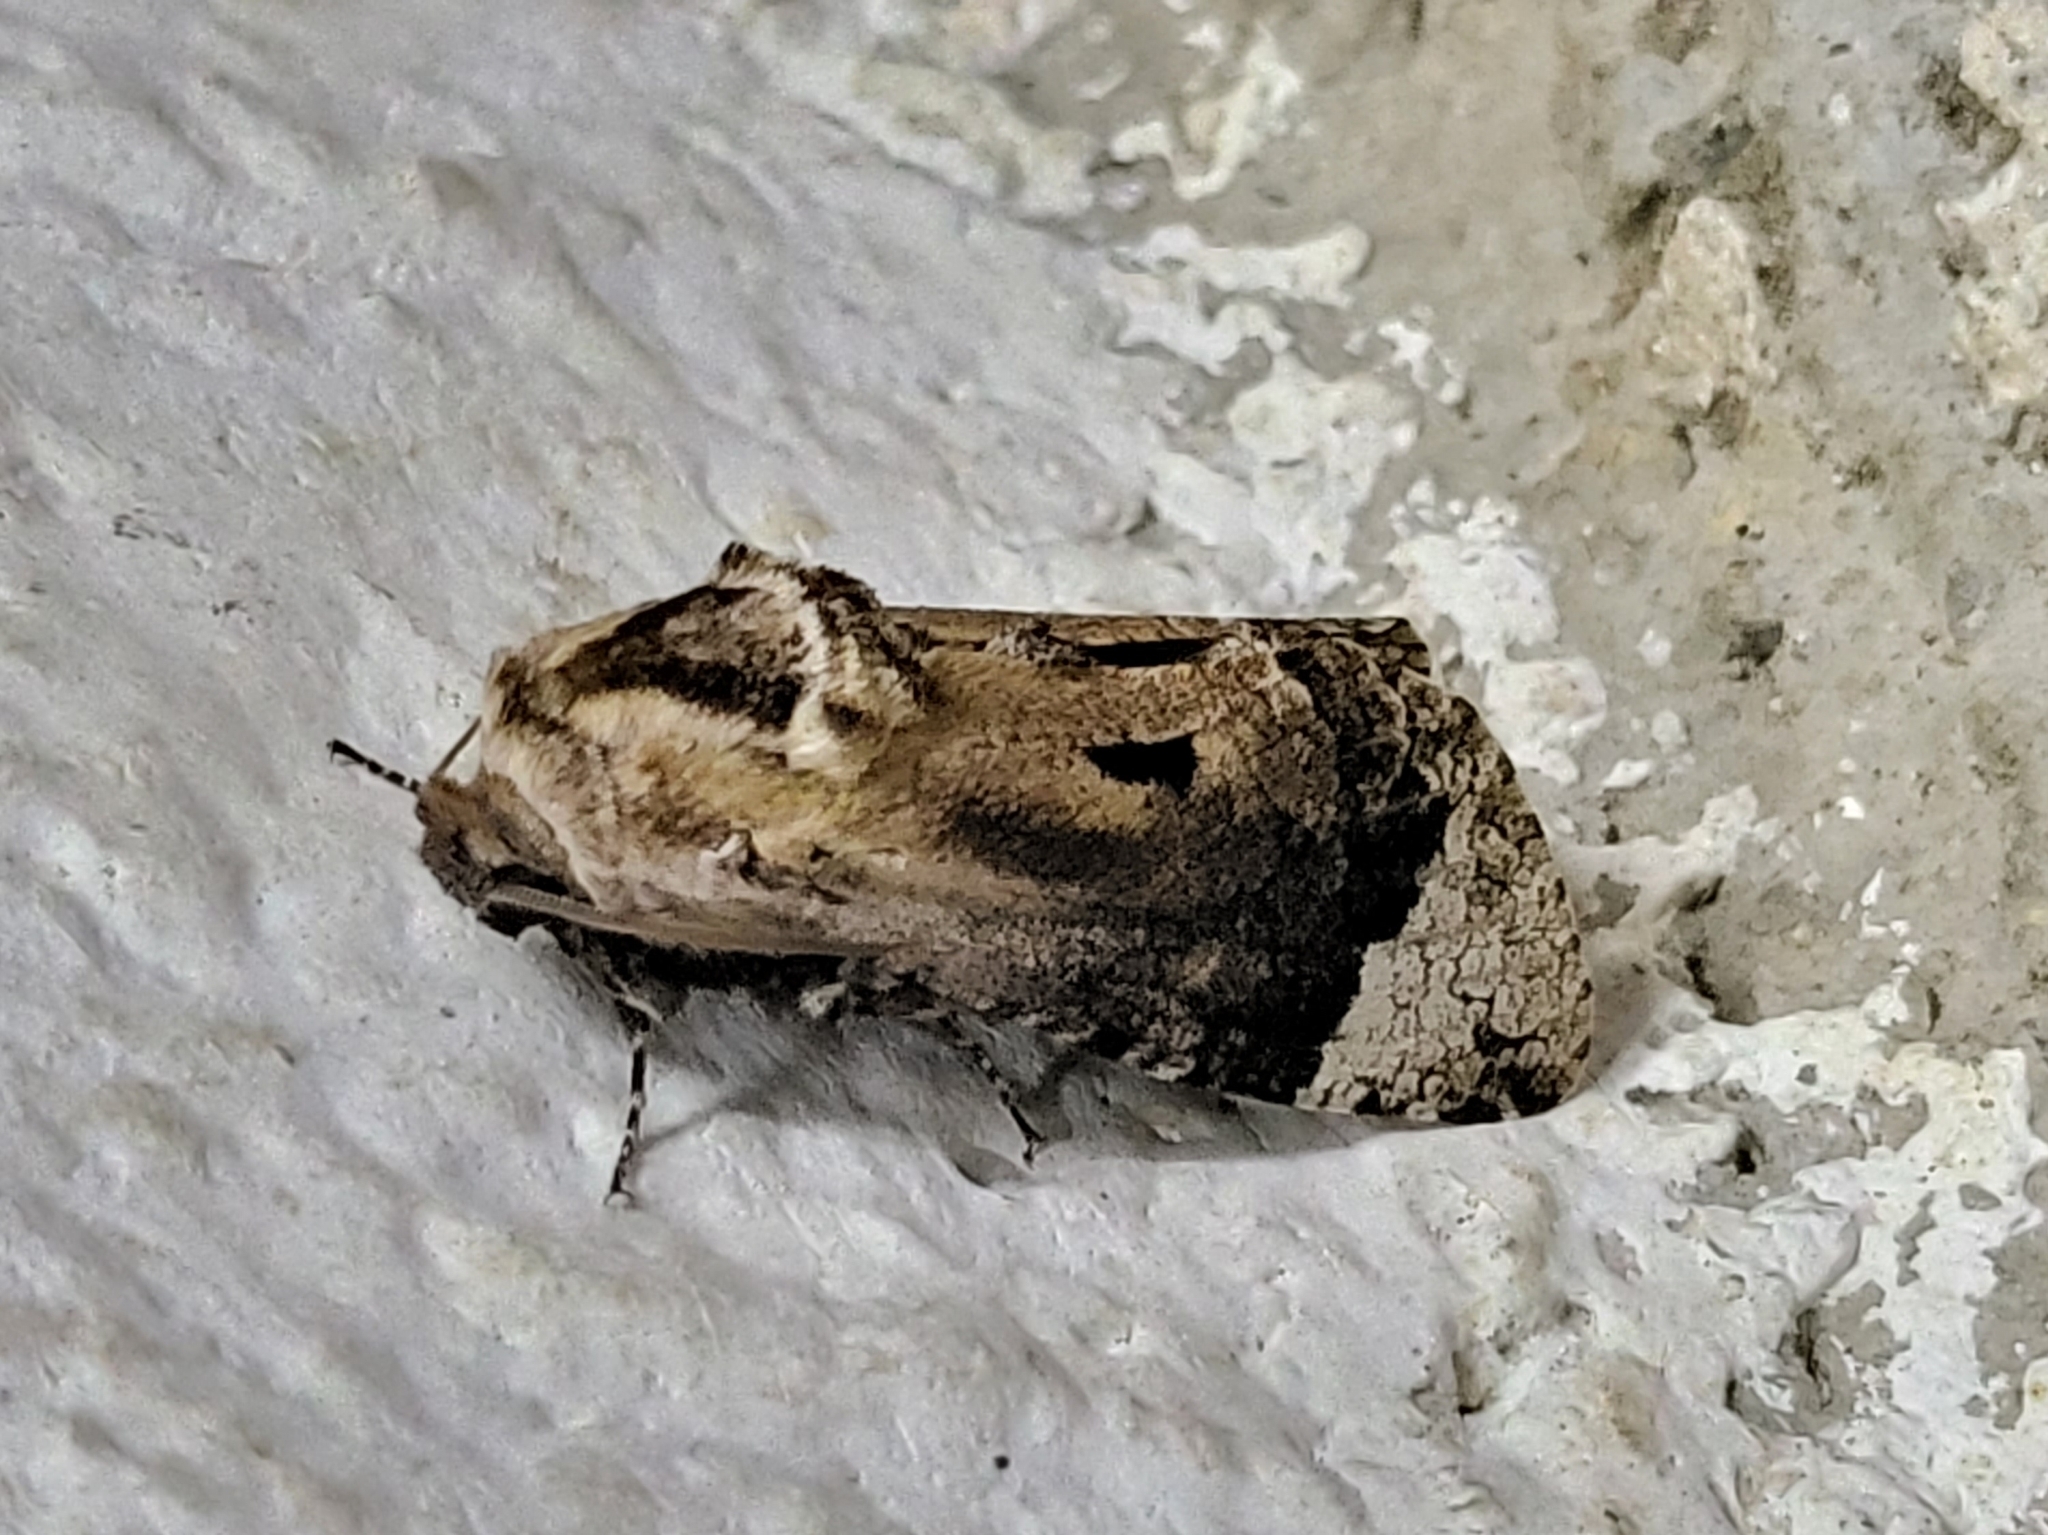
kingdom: Animalia
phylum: Arthropoda
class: Insecta
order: Lepidoptera
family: Cossidae
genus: Groenendaelia
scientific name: Groenendaelia kinabaluensis
